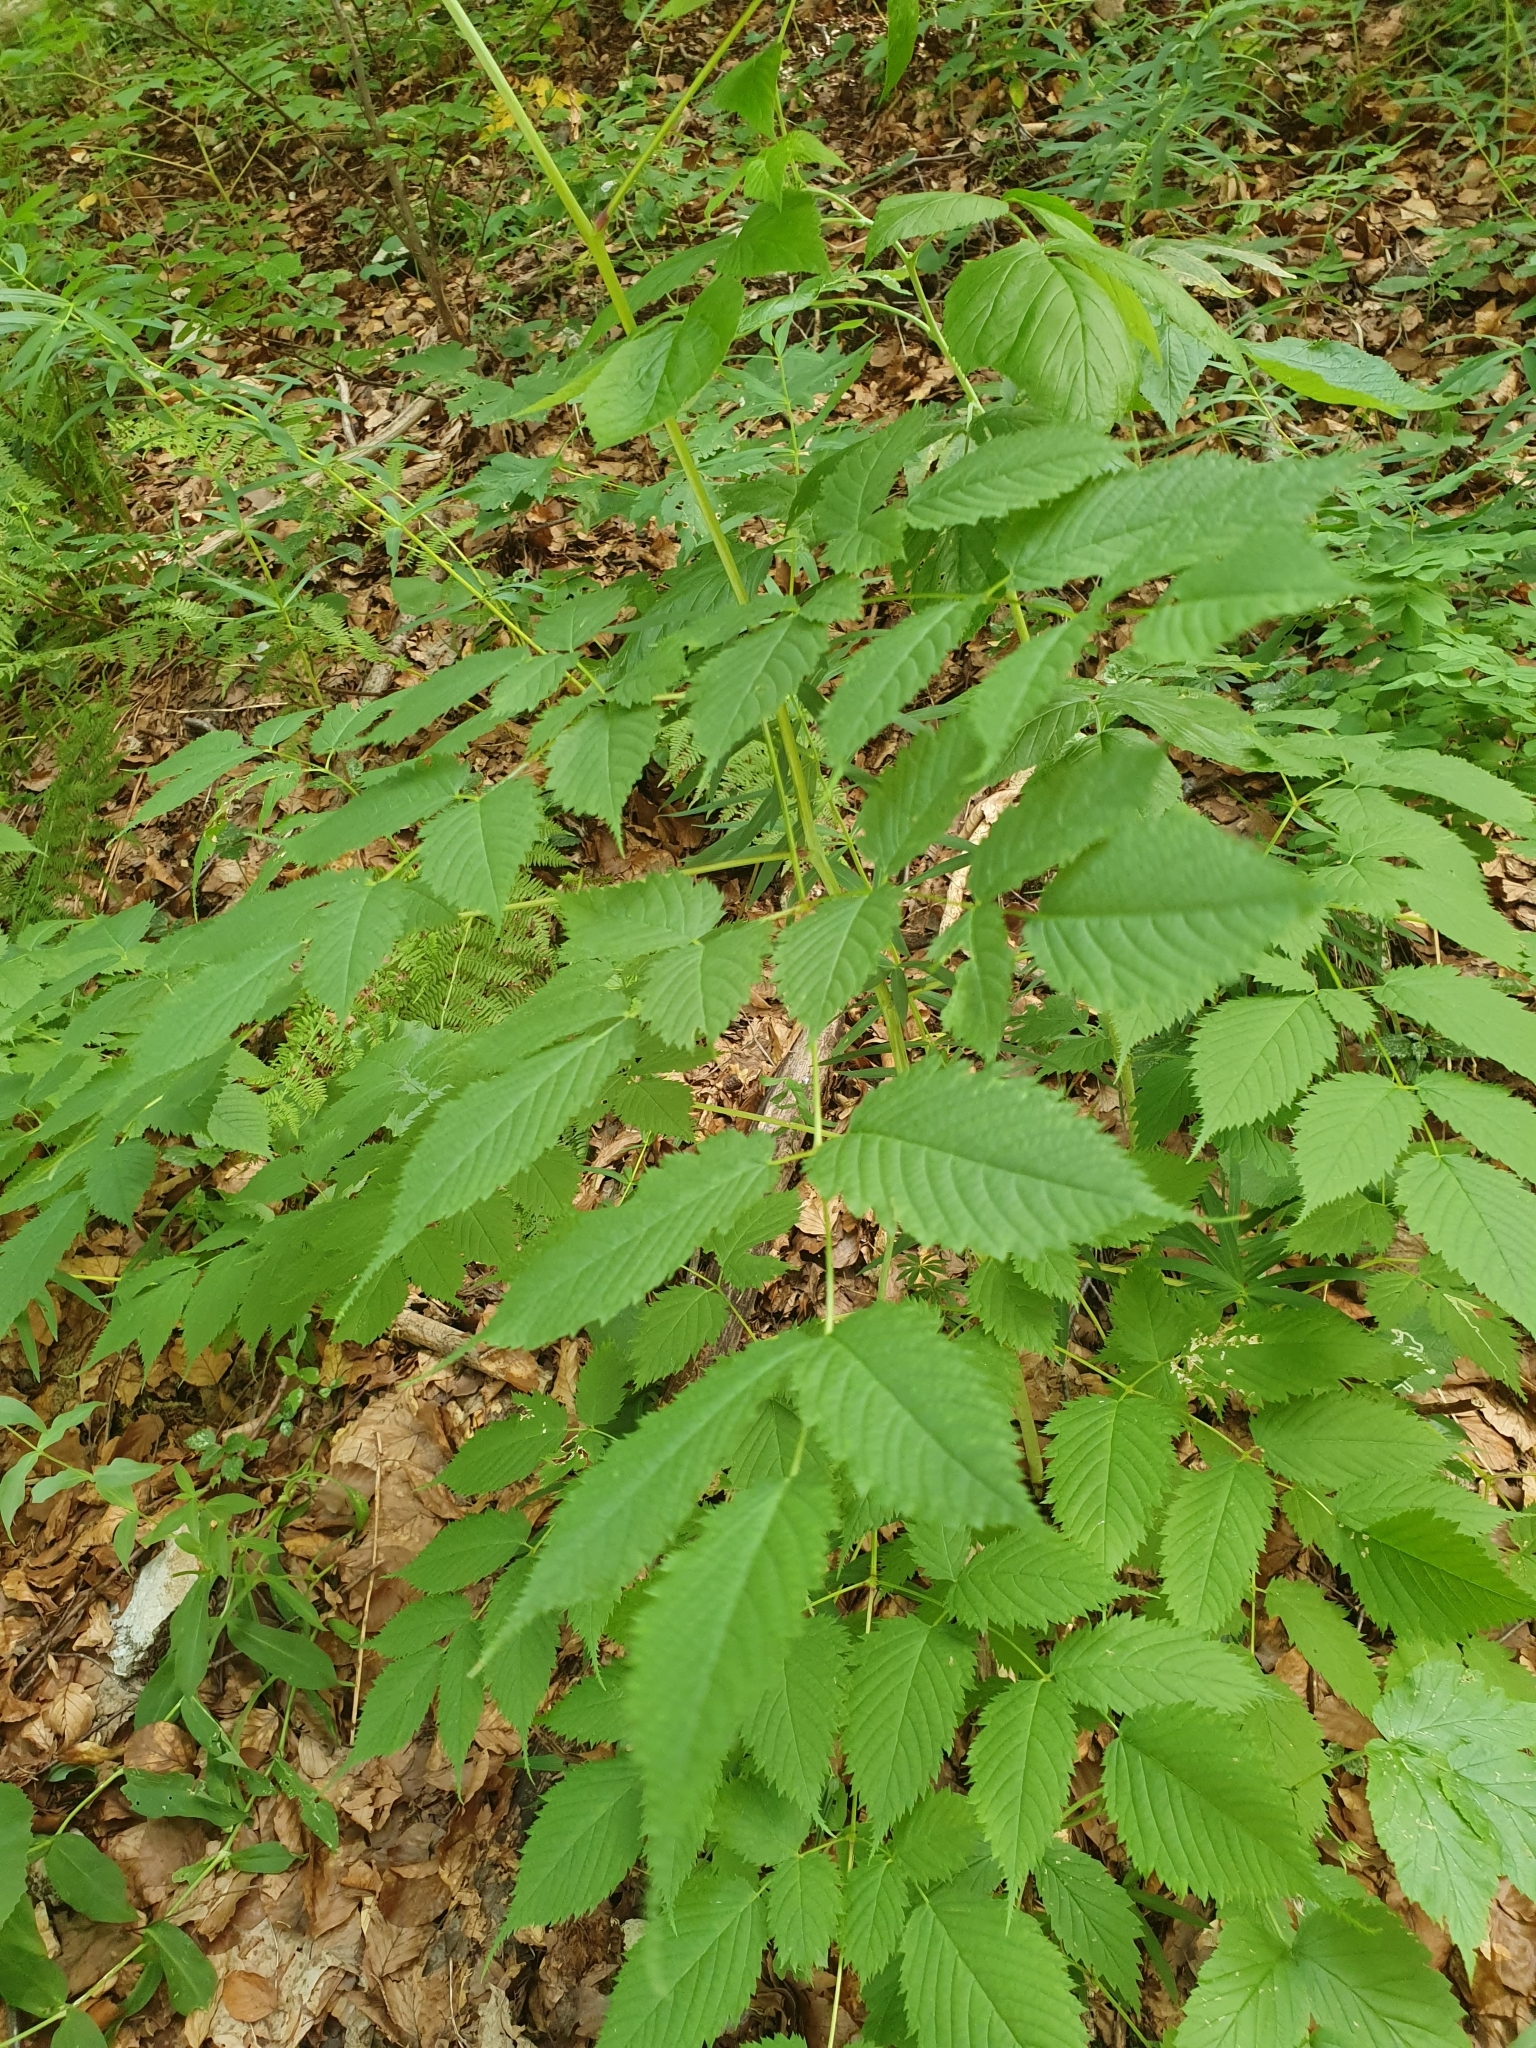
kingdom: Plantae
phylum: Tracheophyta
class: Magnoliopsida
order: Rosales
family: Rosaceae
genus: Aruncus
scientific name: Aruncus dioicus
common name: Buck's-beard
